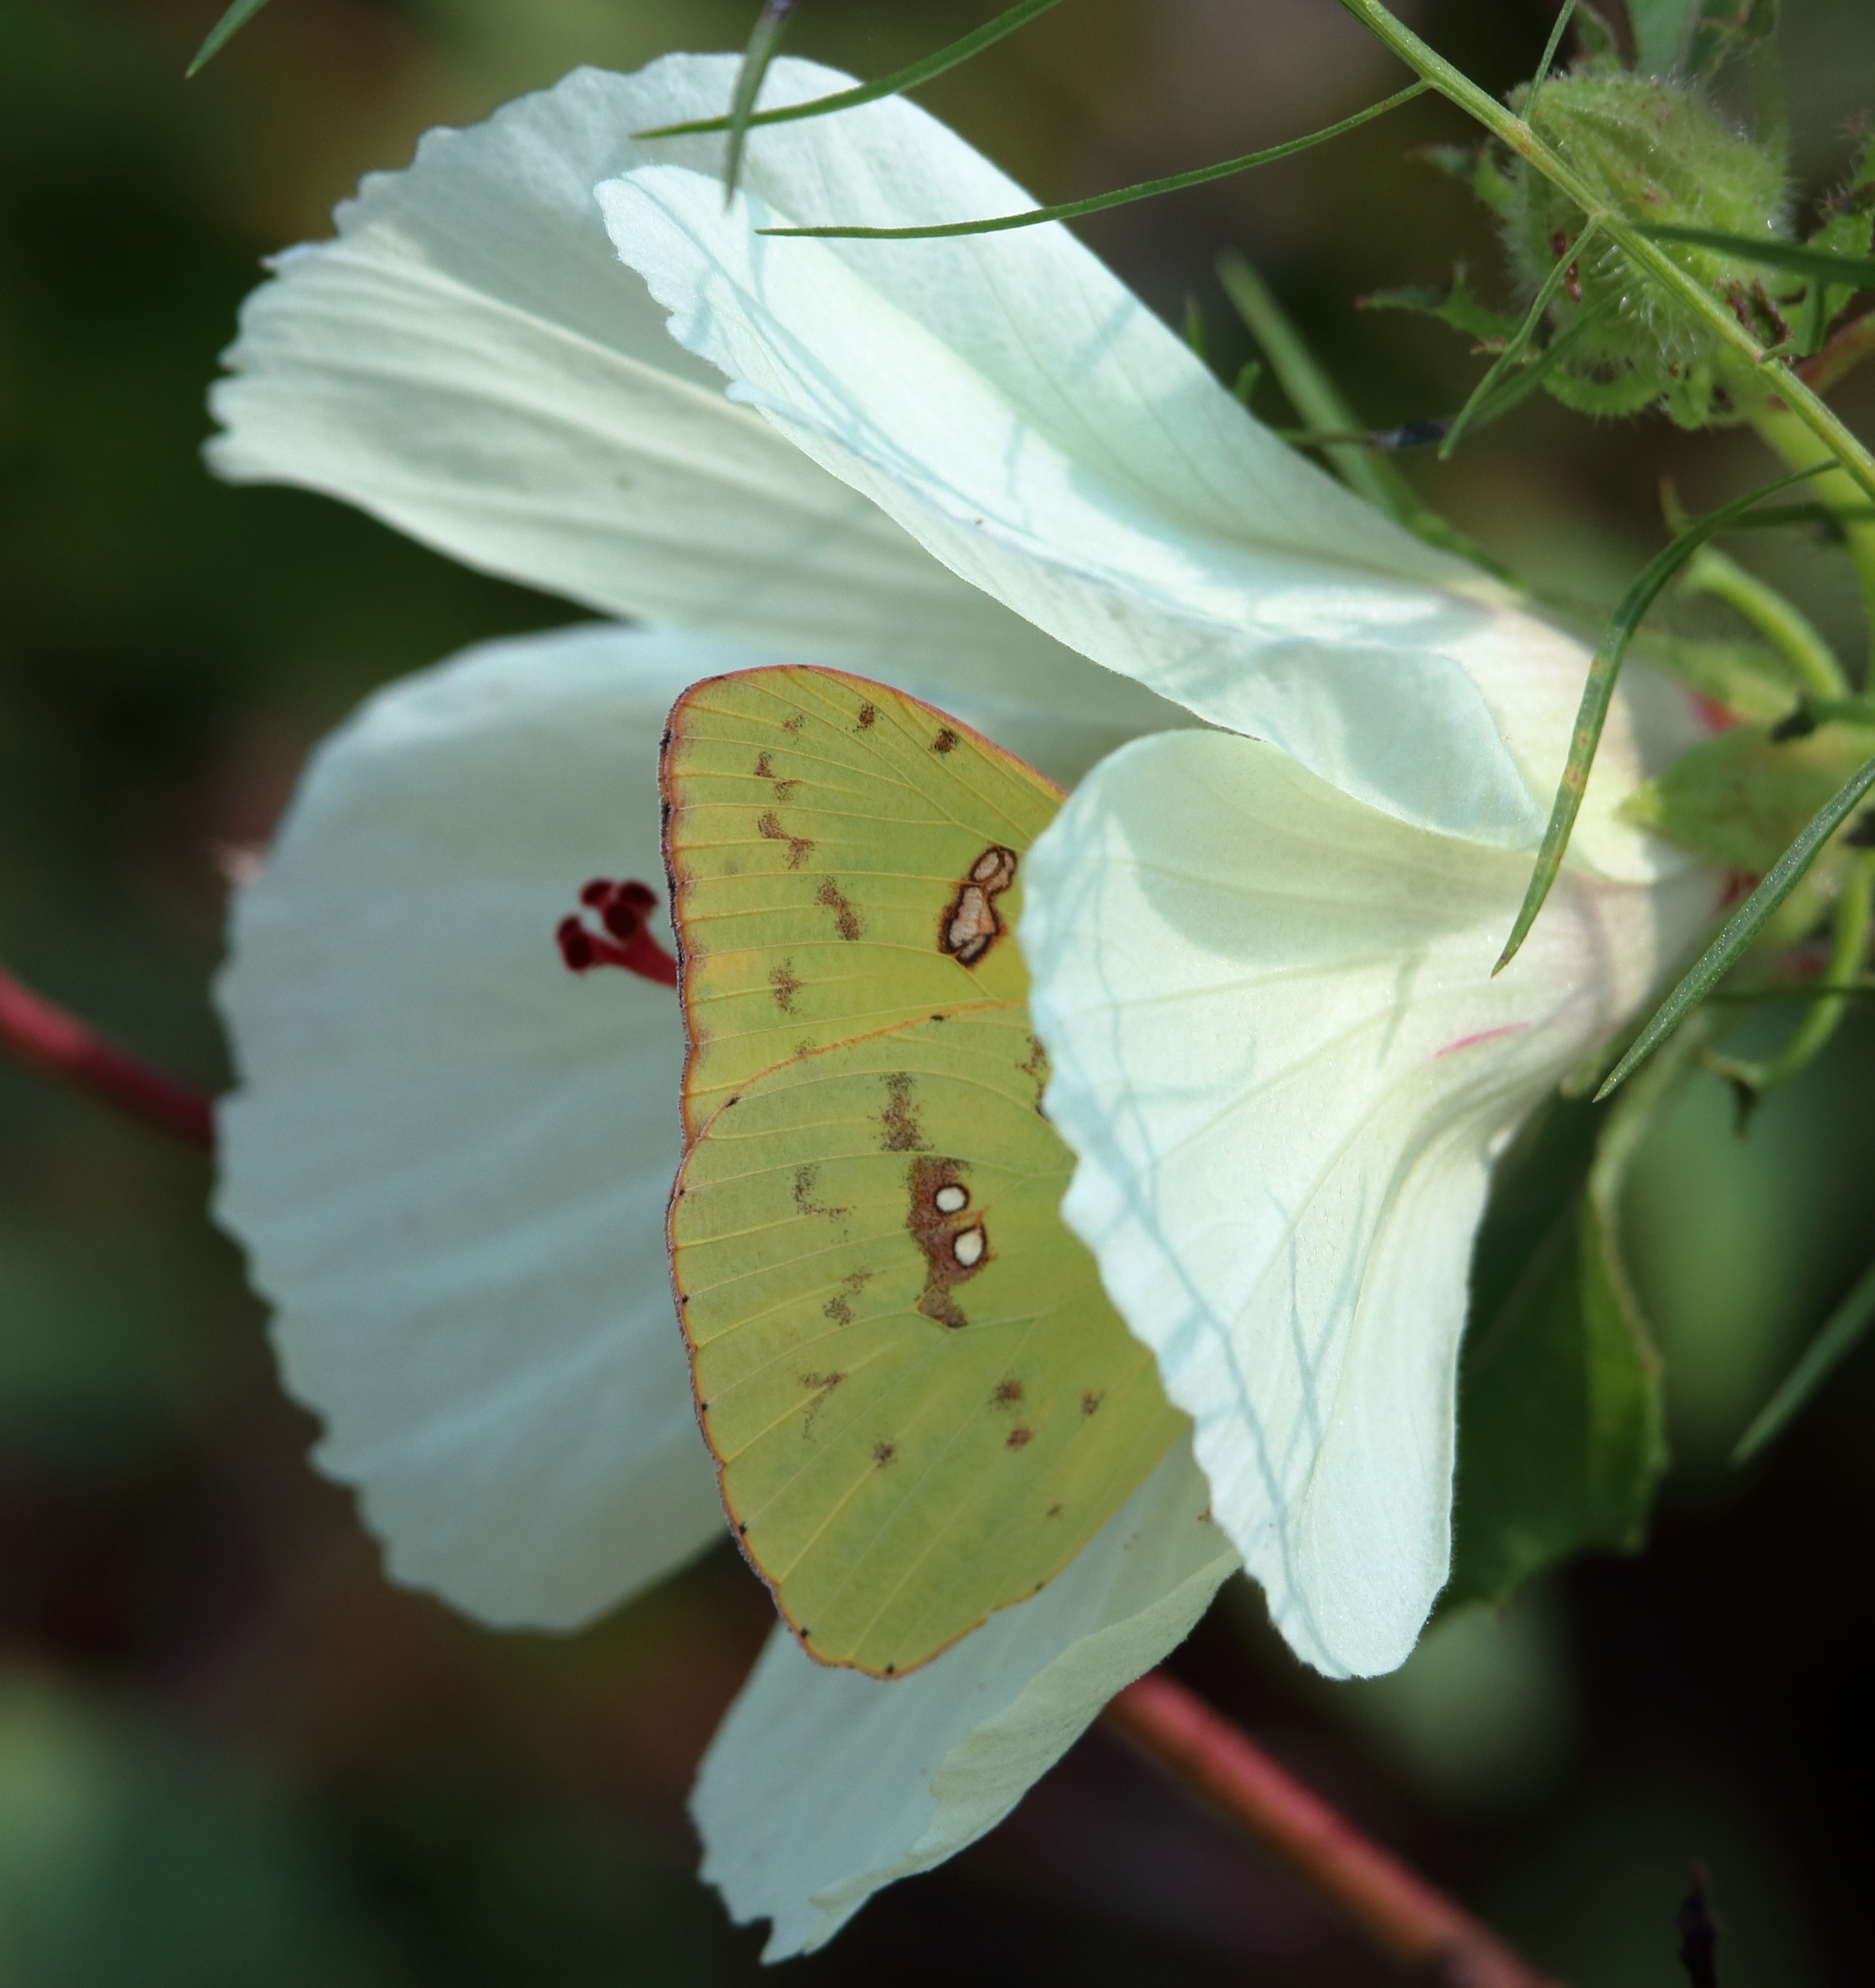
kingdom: Animalia
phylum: Arthropoda
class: Insecta
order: Lepidoptera
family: Pieridae
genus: Phoebis
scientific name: Phoebis sennae
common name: Cloudless sulphur
